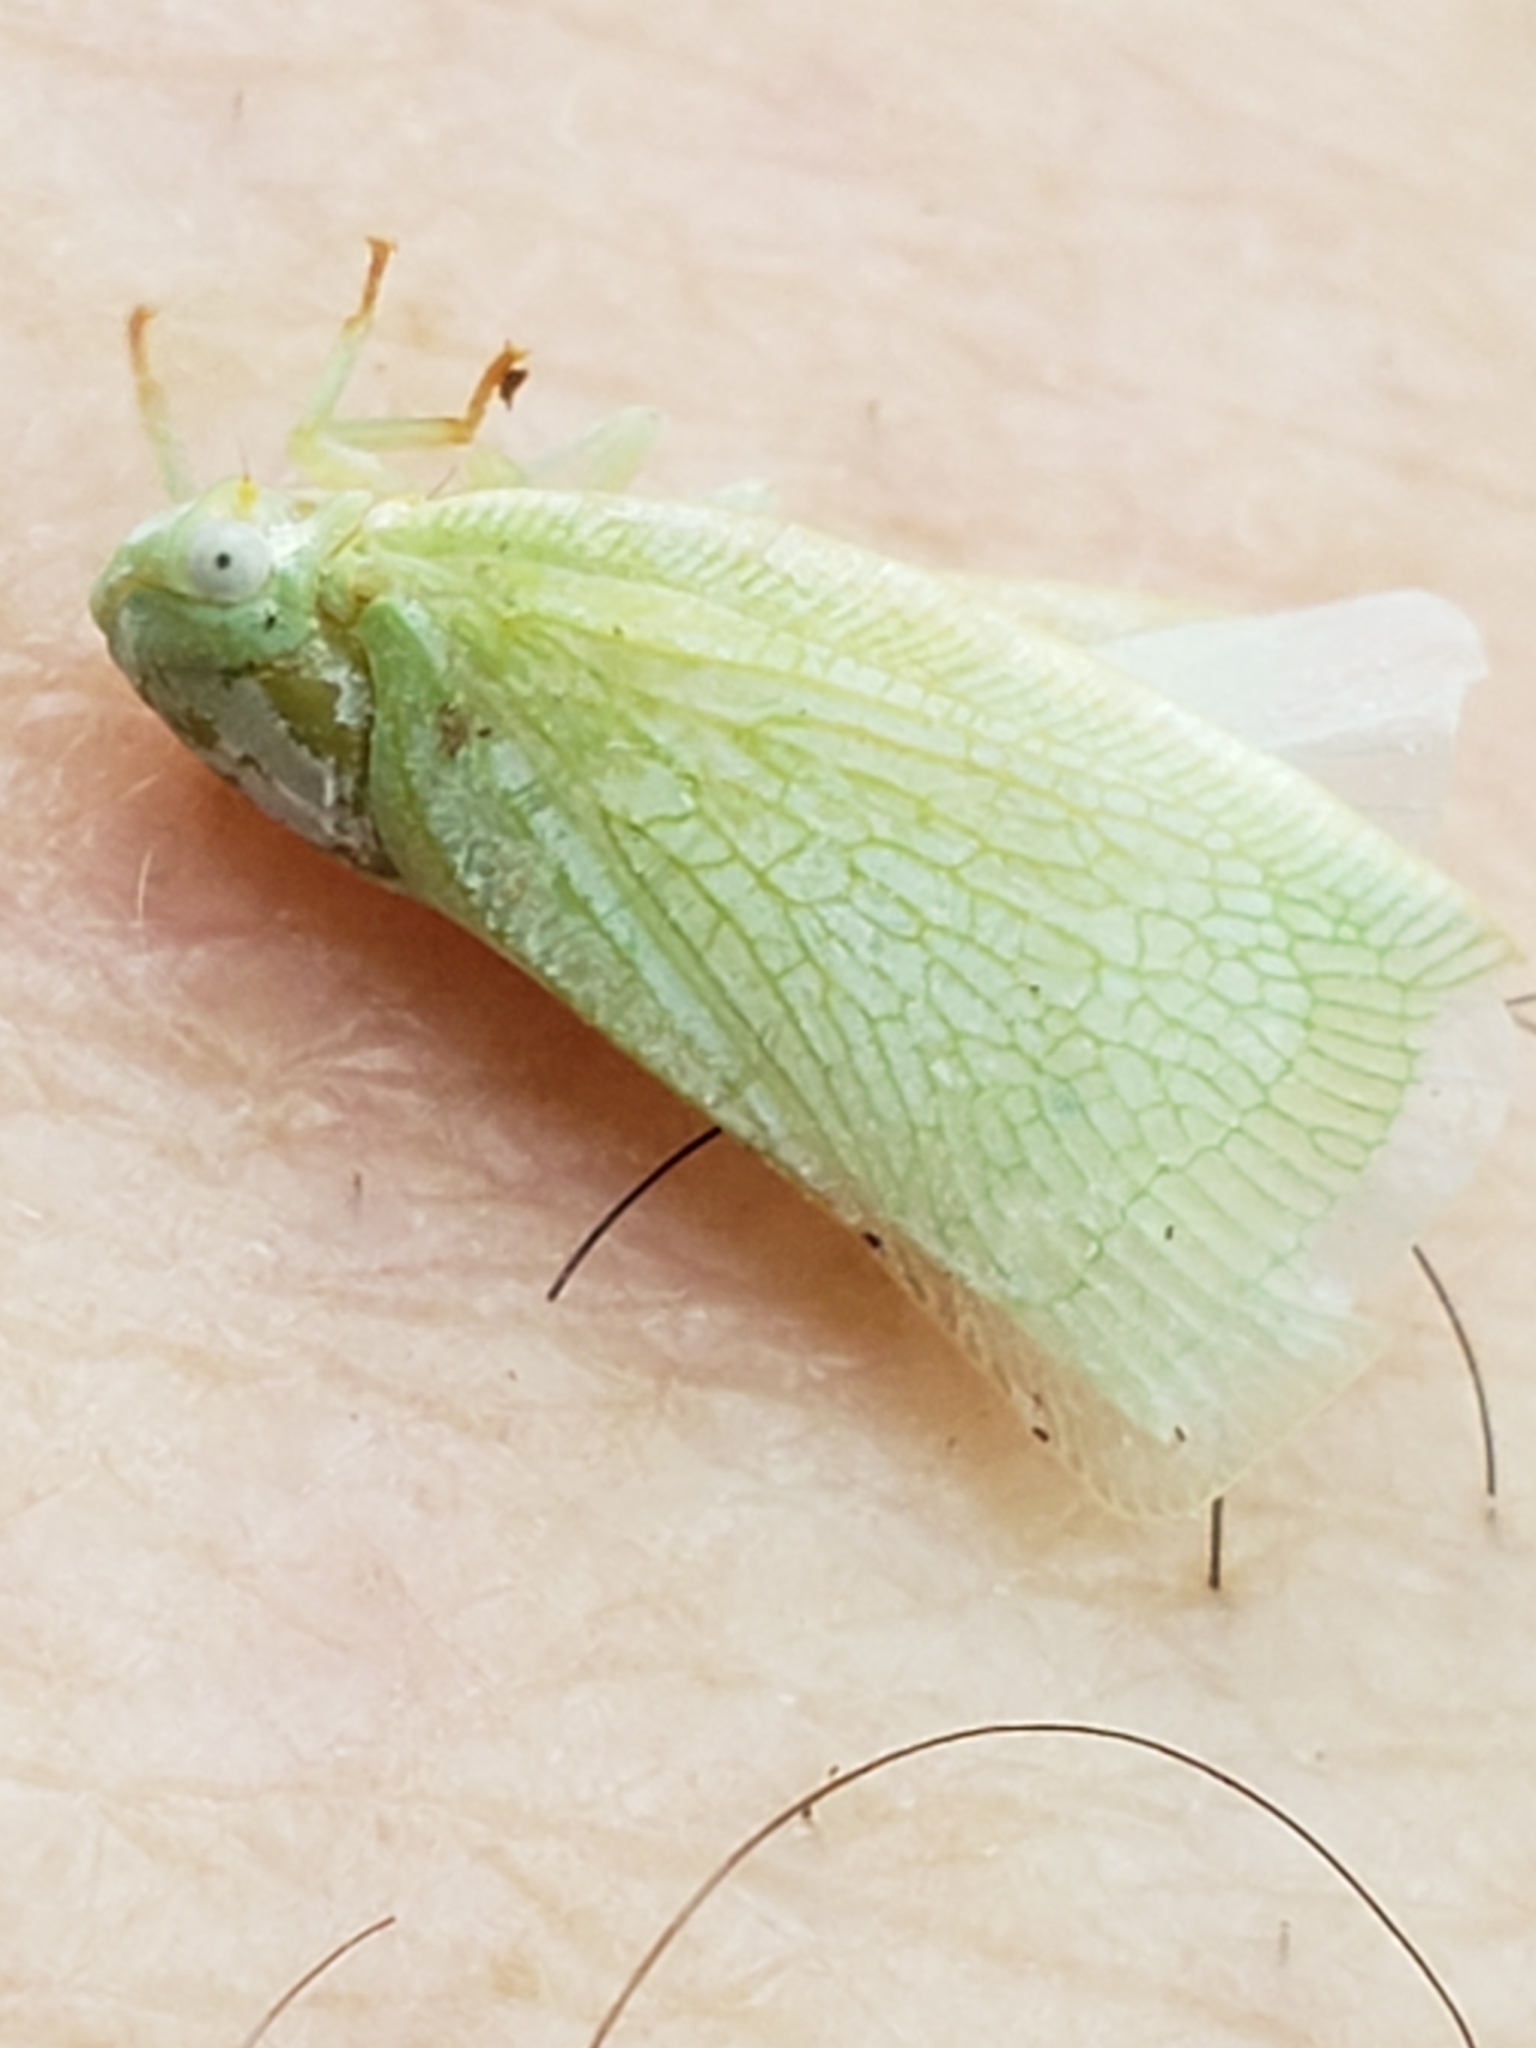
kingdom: Animalia
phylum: Arthropoda
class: Insecta
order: Hemiptera
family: Flatidae
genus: Flatormenis
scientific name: Flatormenis proxima
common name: Northern flatid planthopper
